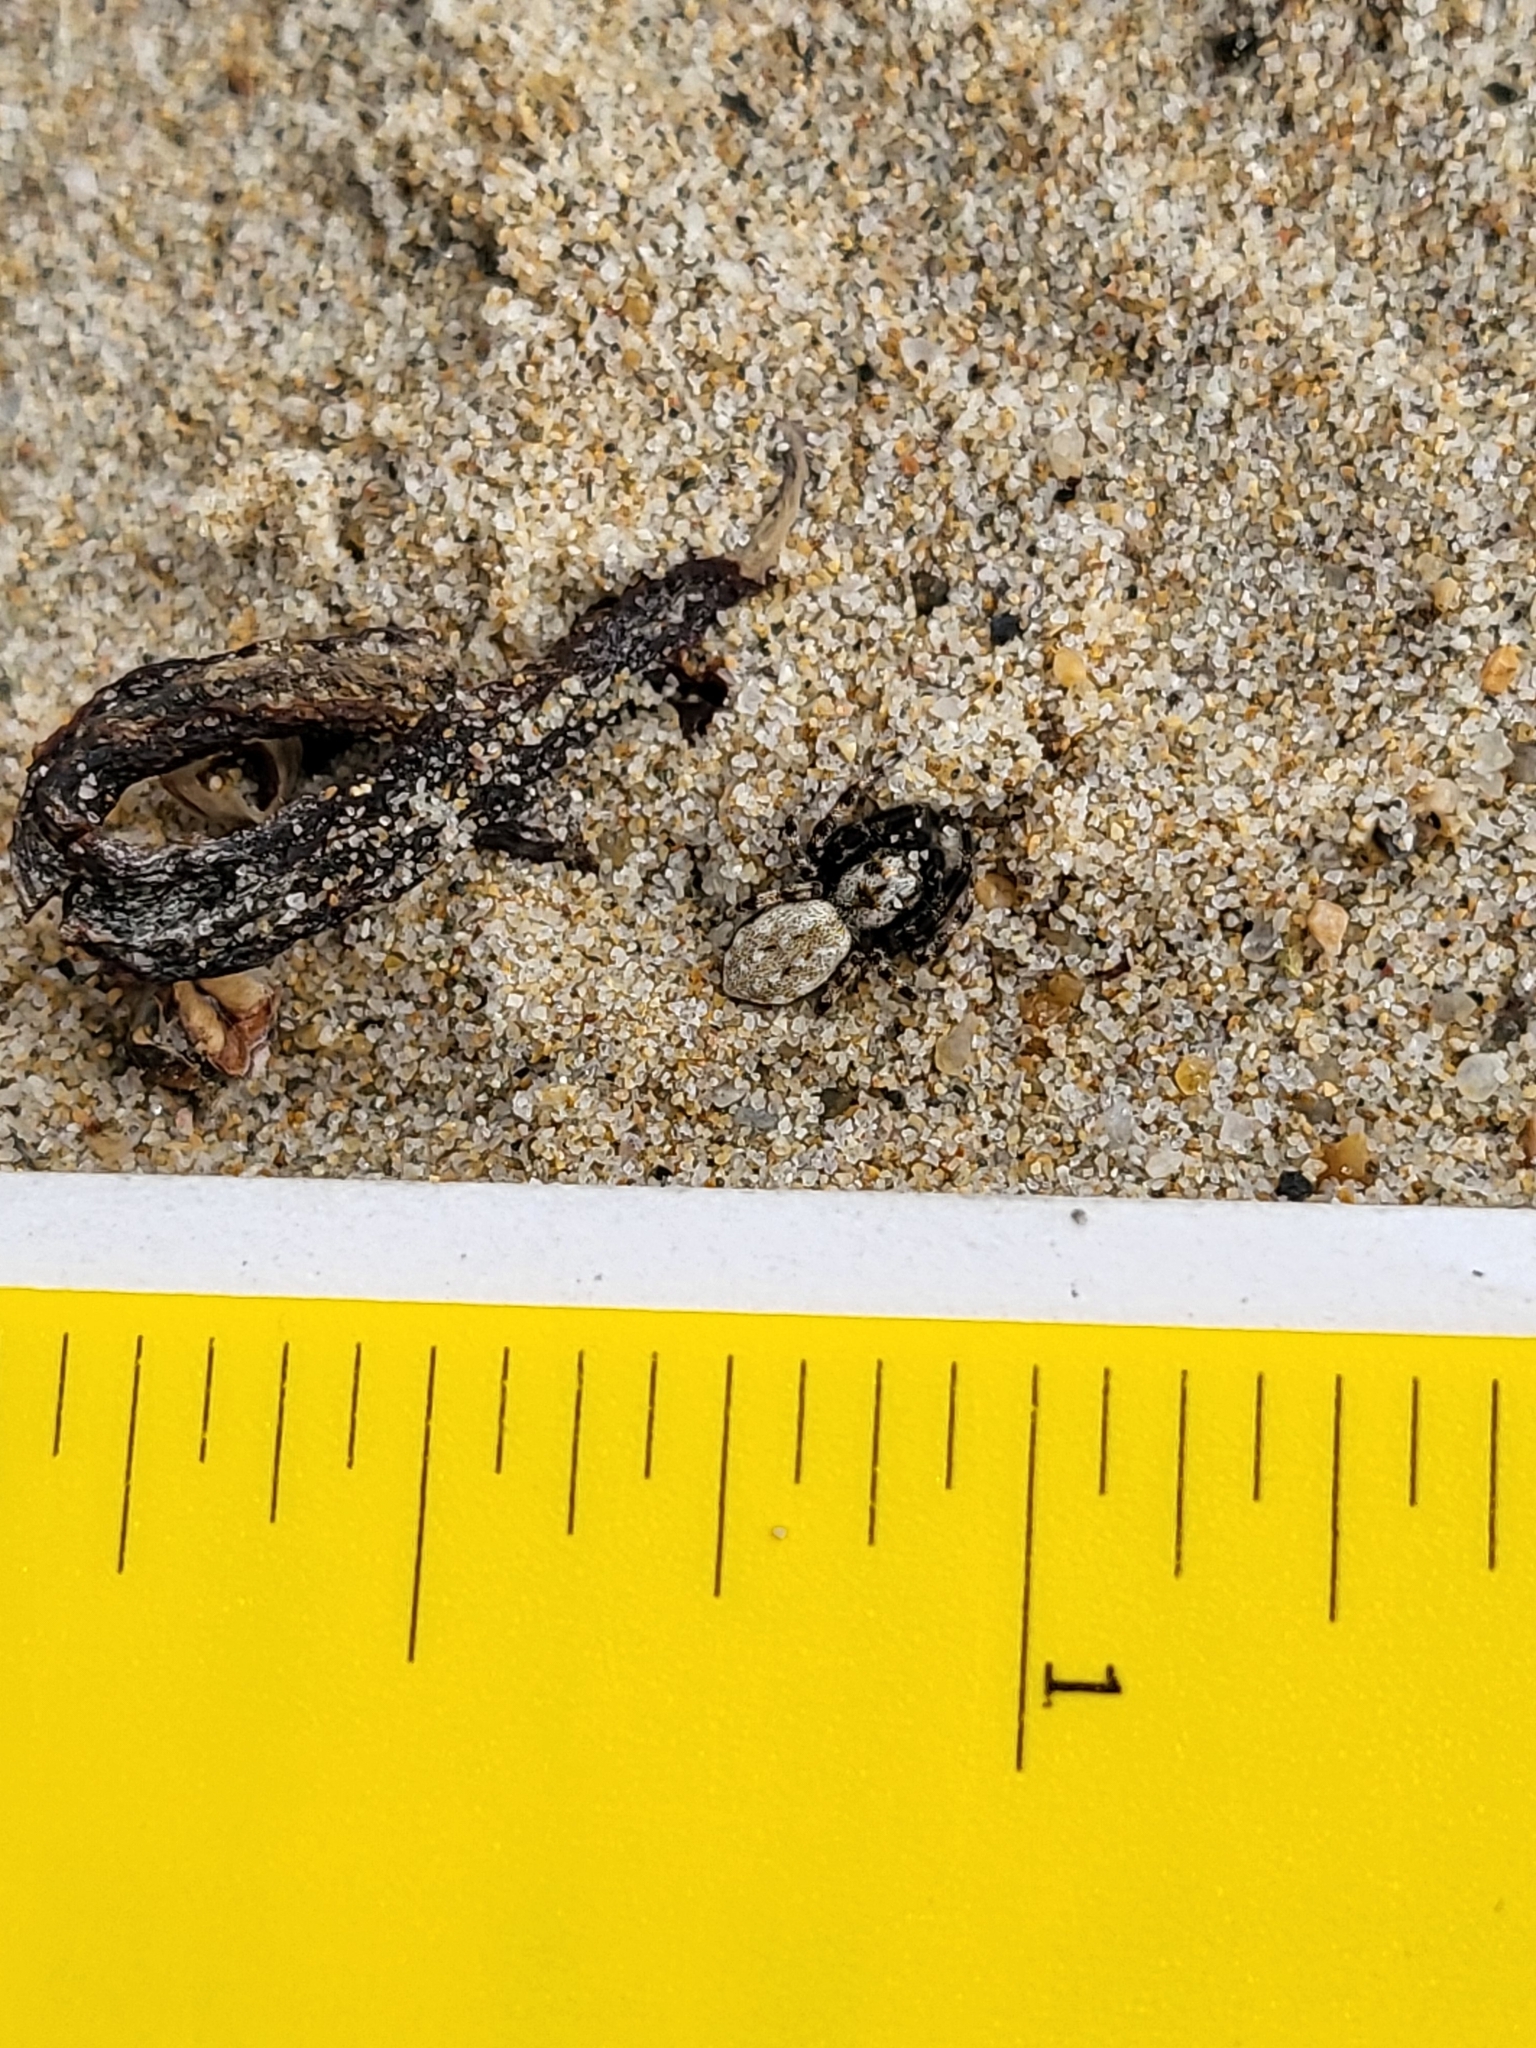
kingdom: Animalia
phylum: Arthropoda
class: Arachnida
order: Araneae
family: Salticidae
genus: Terralonus
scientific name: Terralonus californicus
